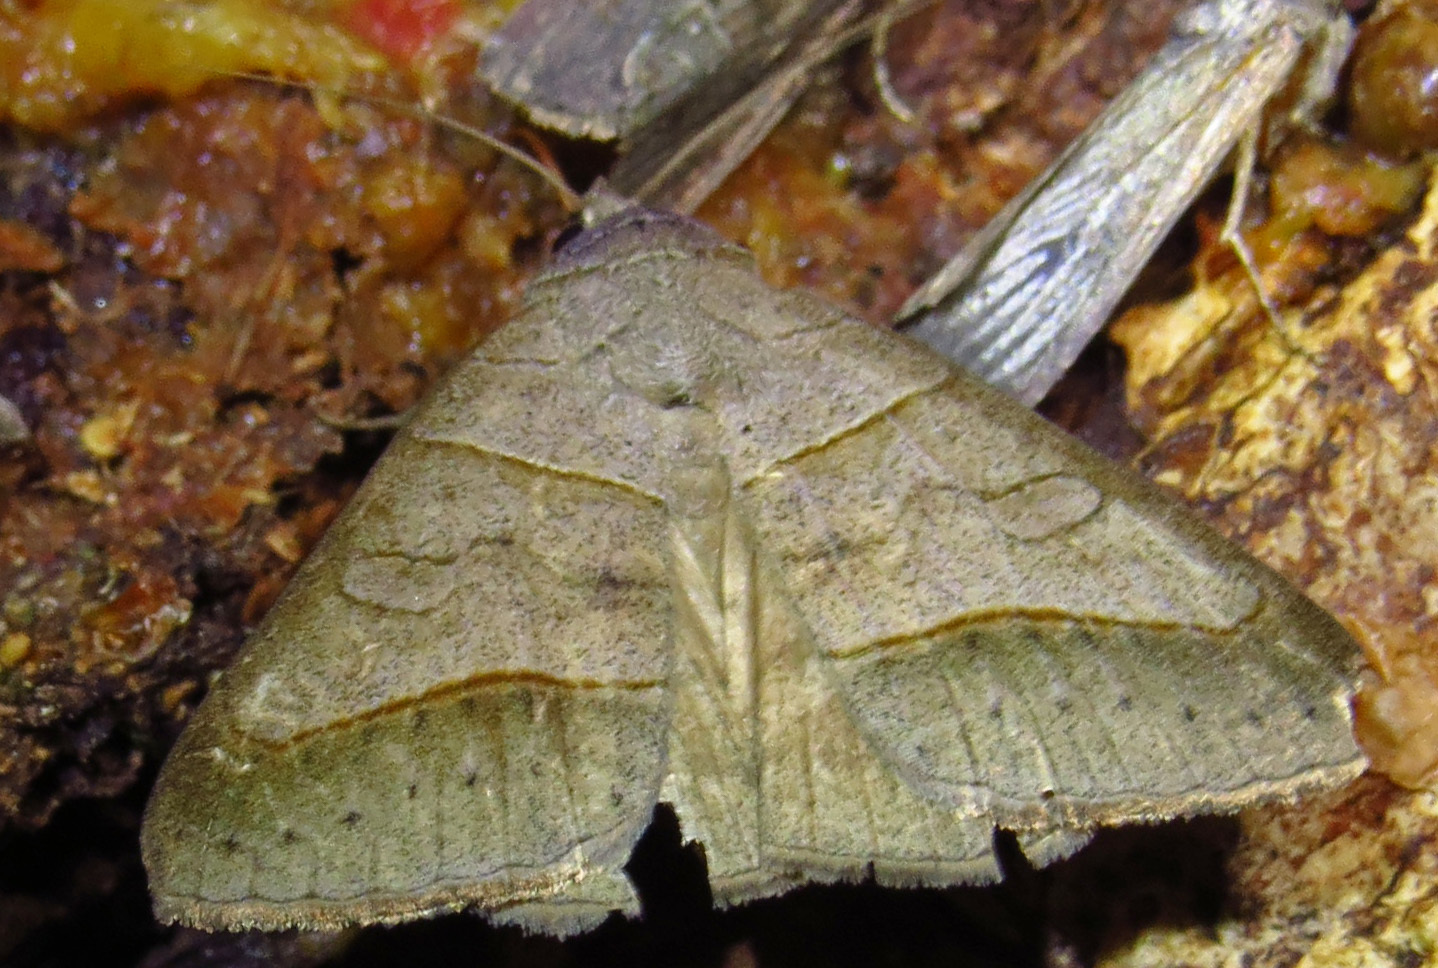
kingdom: Animalia
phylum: Arthropoda
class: Insecta
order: Lepidoptera
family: Erebidae
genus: Mocis
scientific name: Mocis texana
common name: Texas mocis moth
